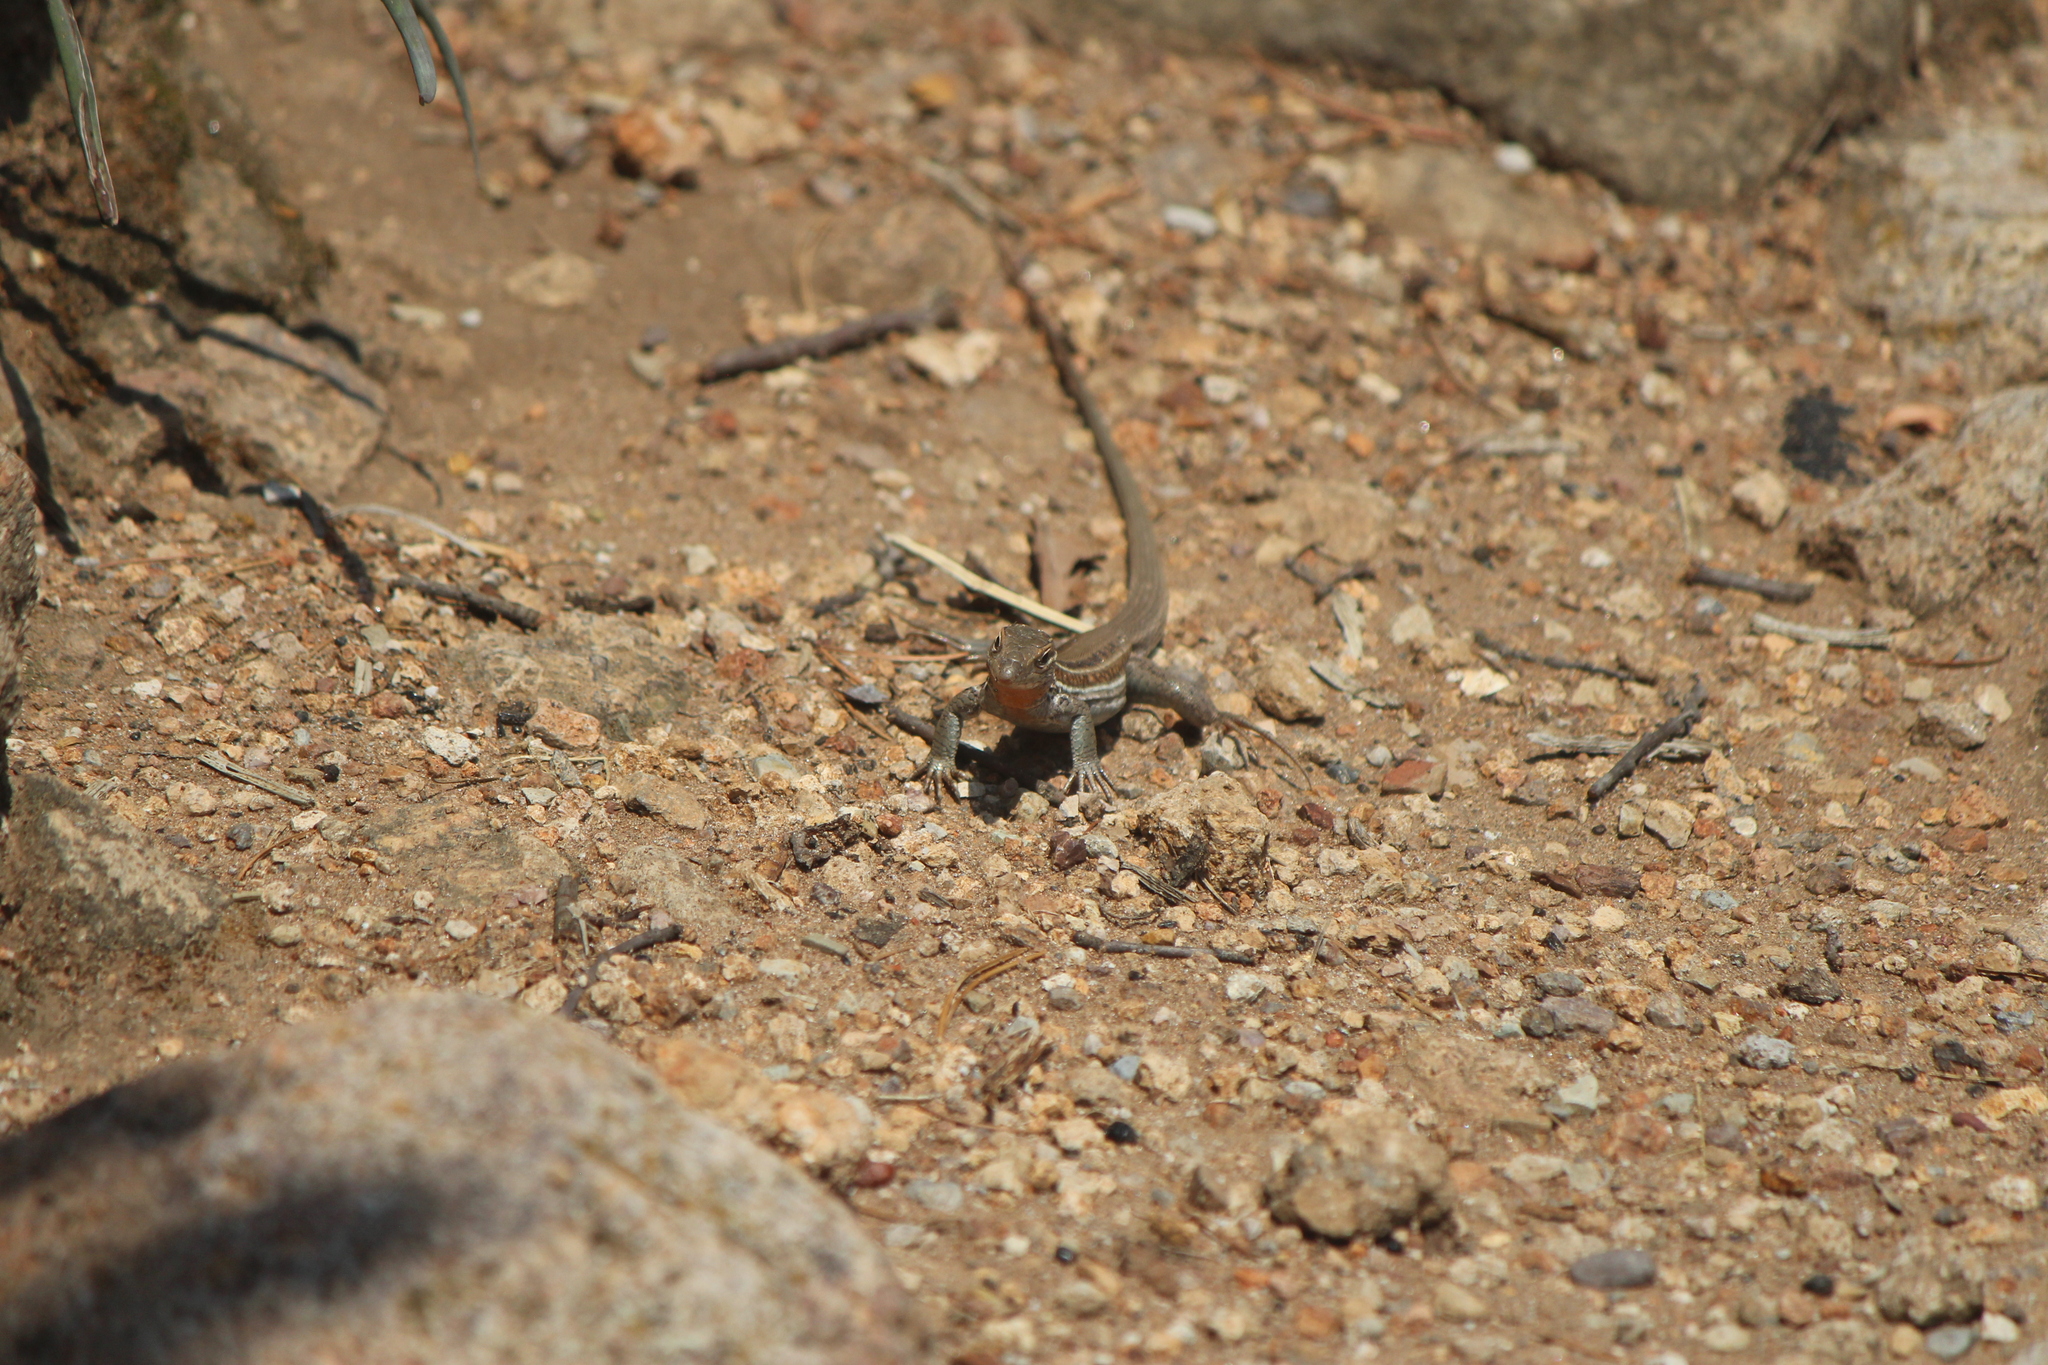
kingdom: Animalia
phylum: Chordata
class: Squamata
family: Teiidae
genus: Aspidoscelis
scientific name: Aspidoscelis gularis
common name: Eastern spotted whiptail
